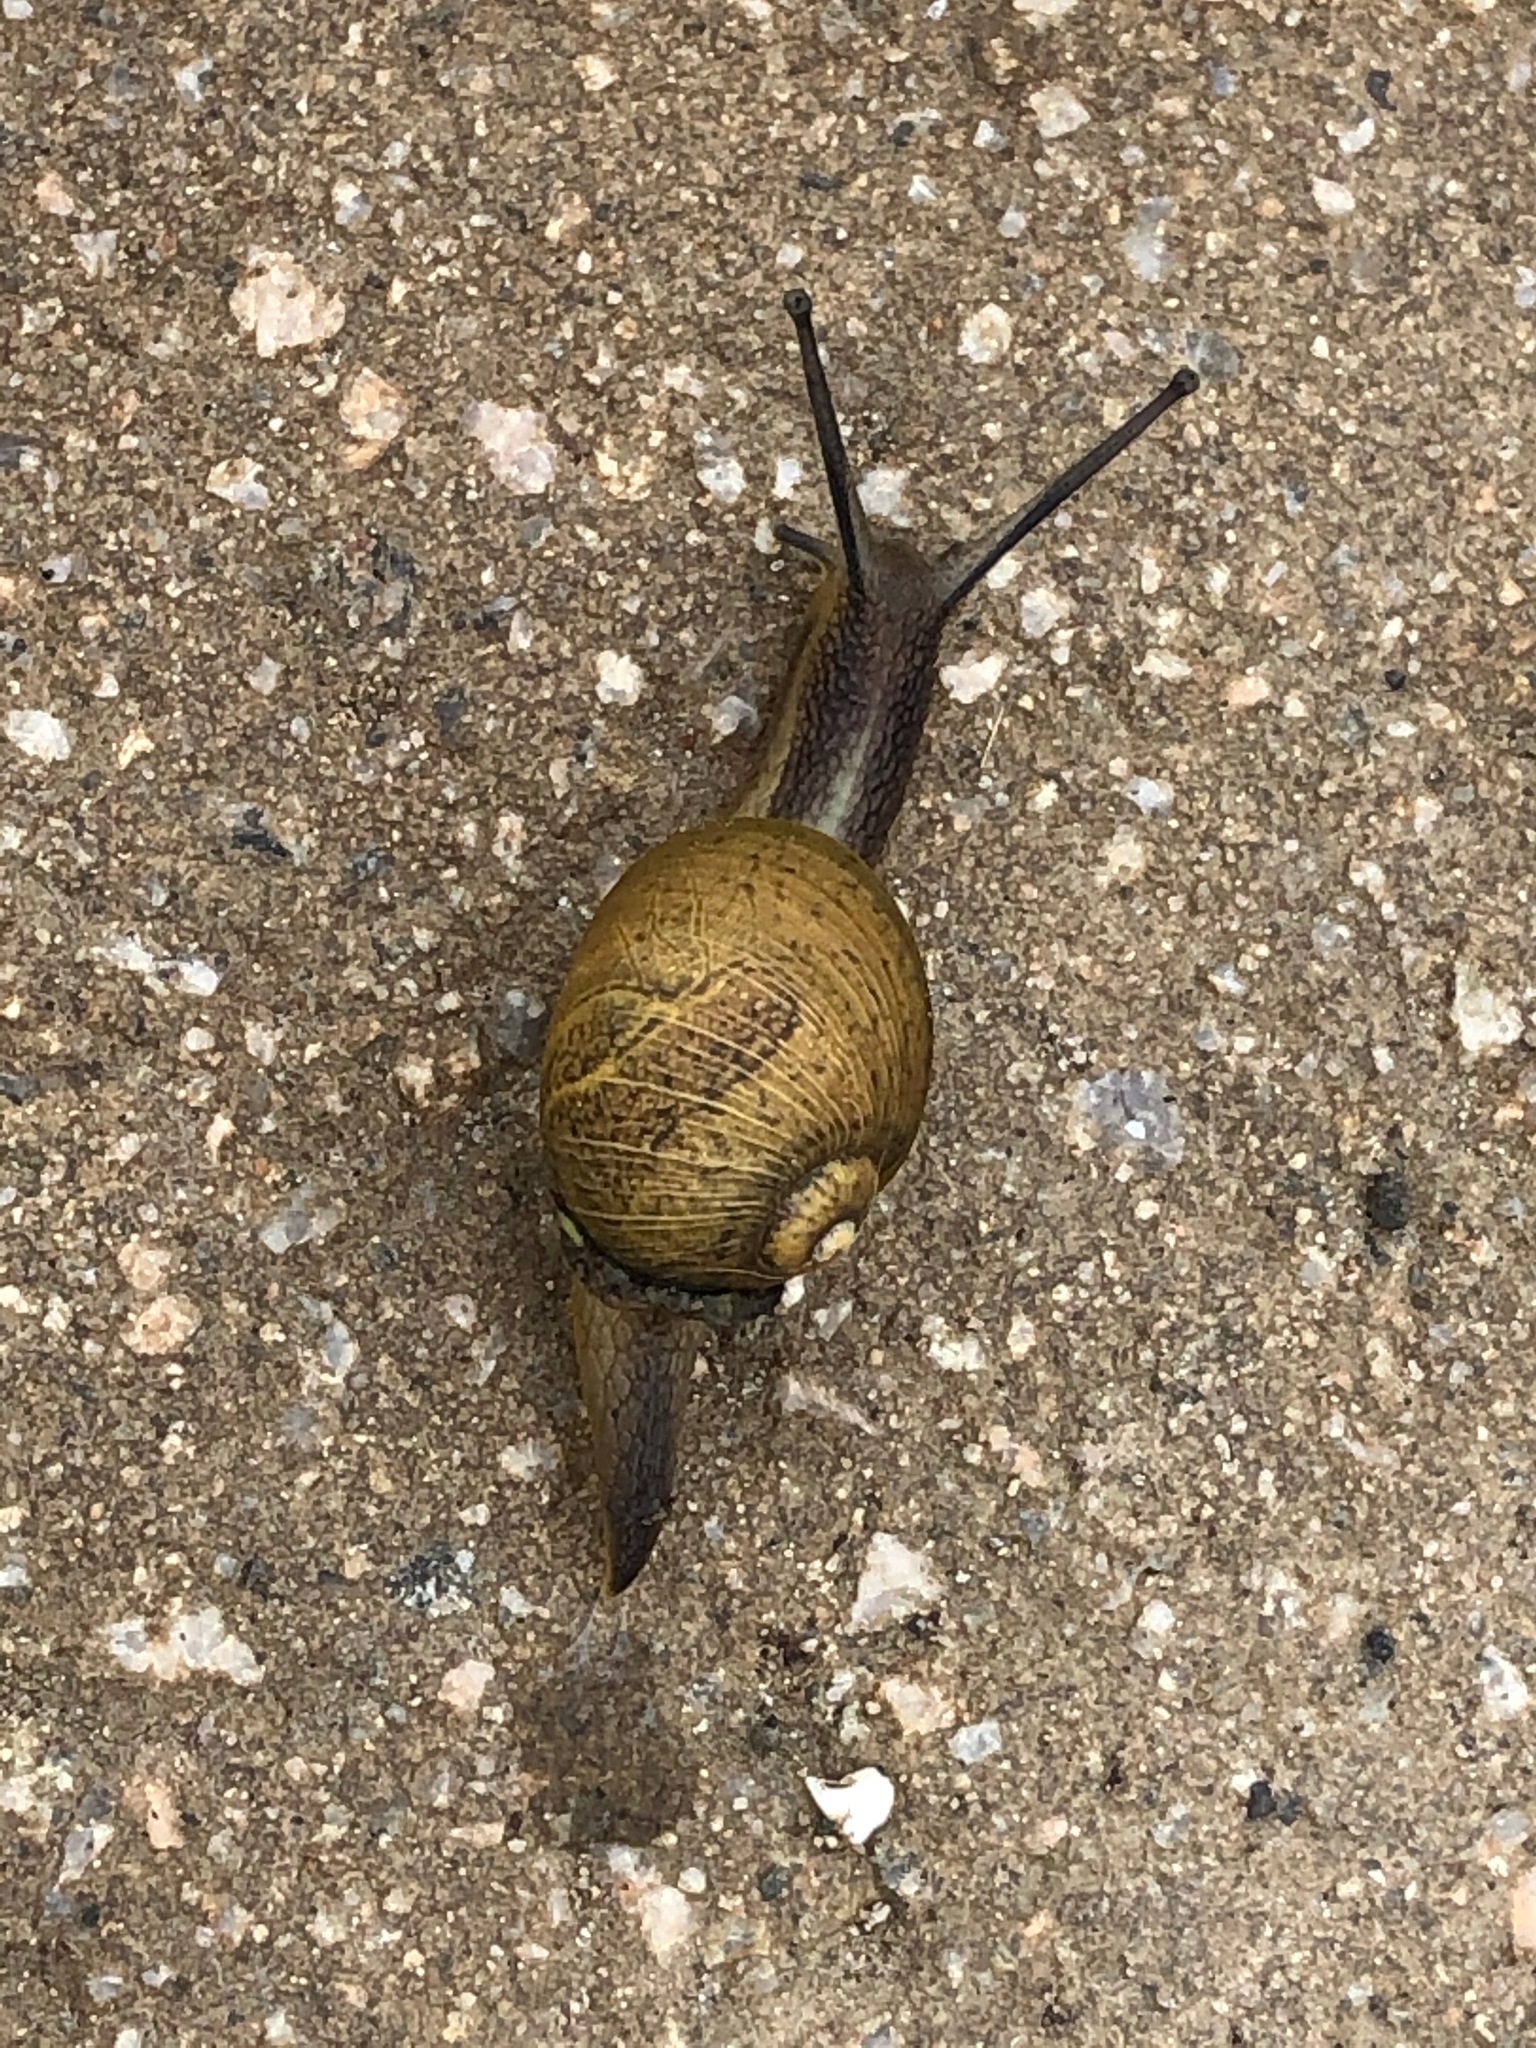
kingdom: Animalia
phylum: Mollusca
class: Gastropoda
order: Stylommatophora
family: Helicidae
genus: Cantareus
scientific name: Cantareus apertus
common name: Green gardensnail
